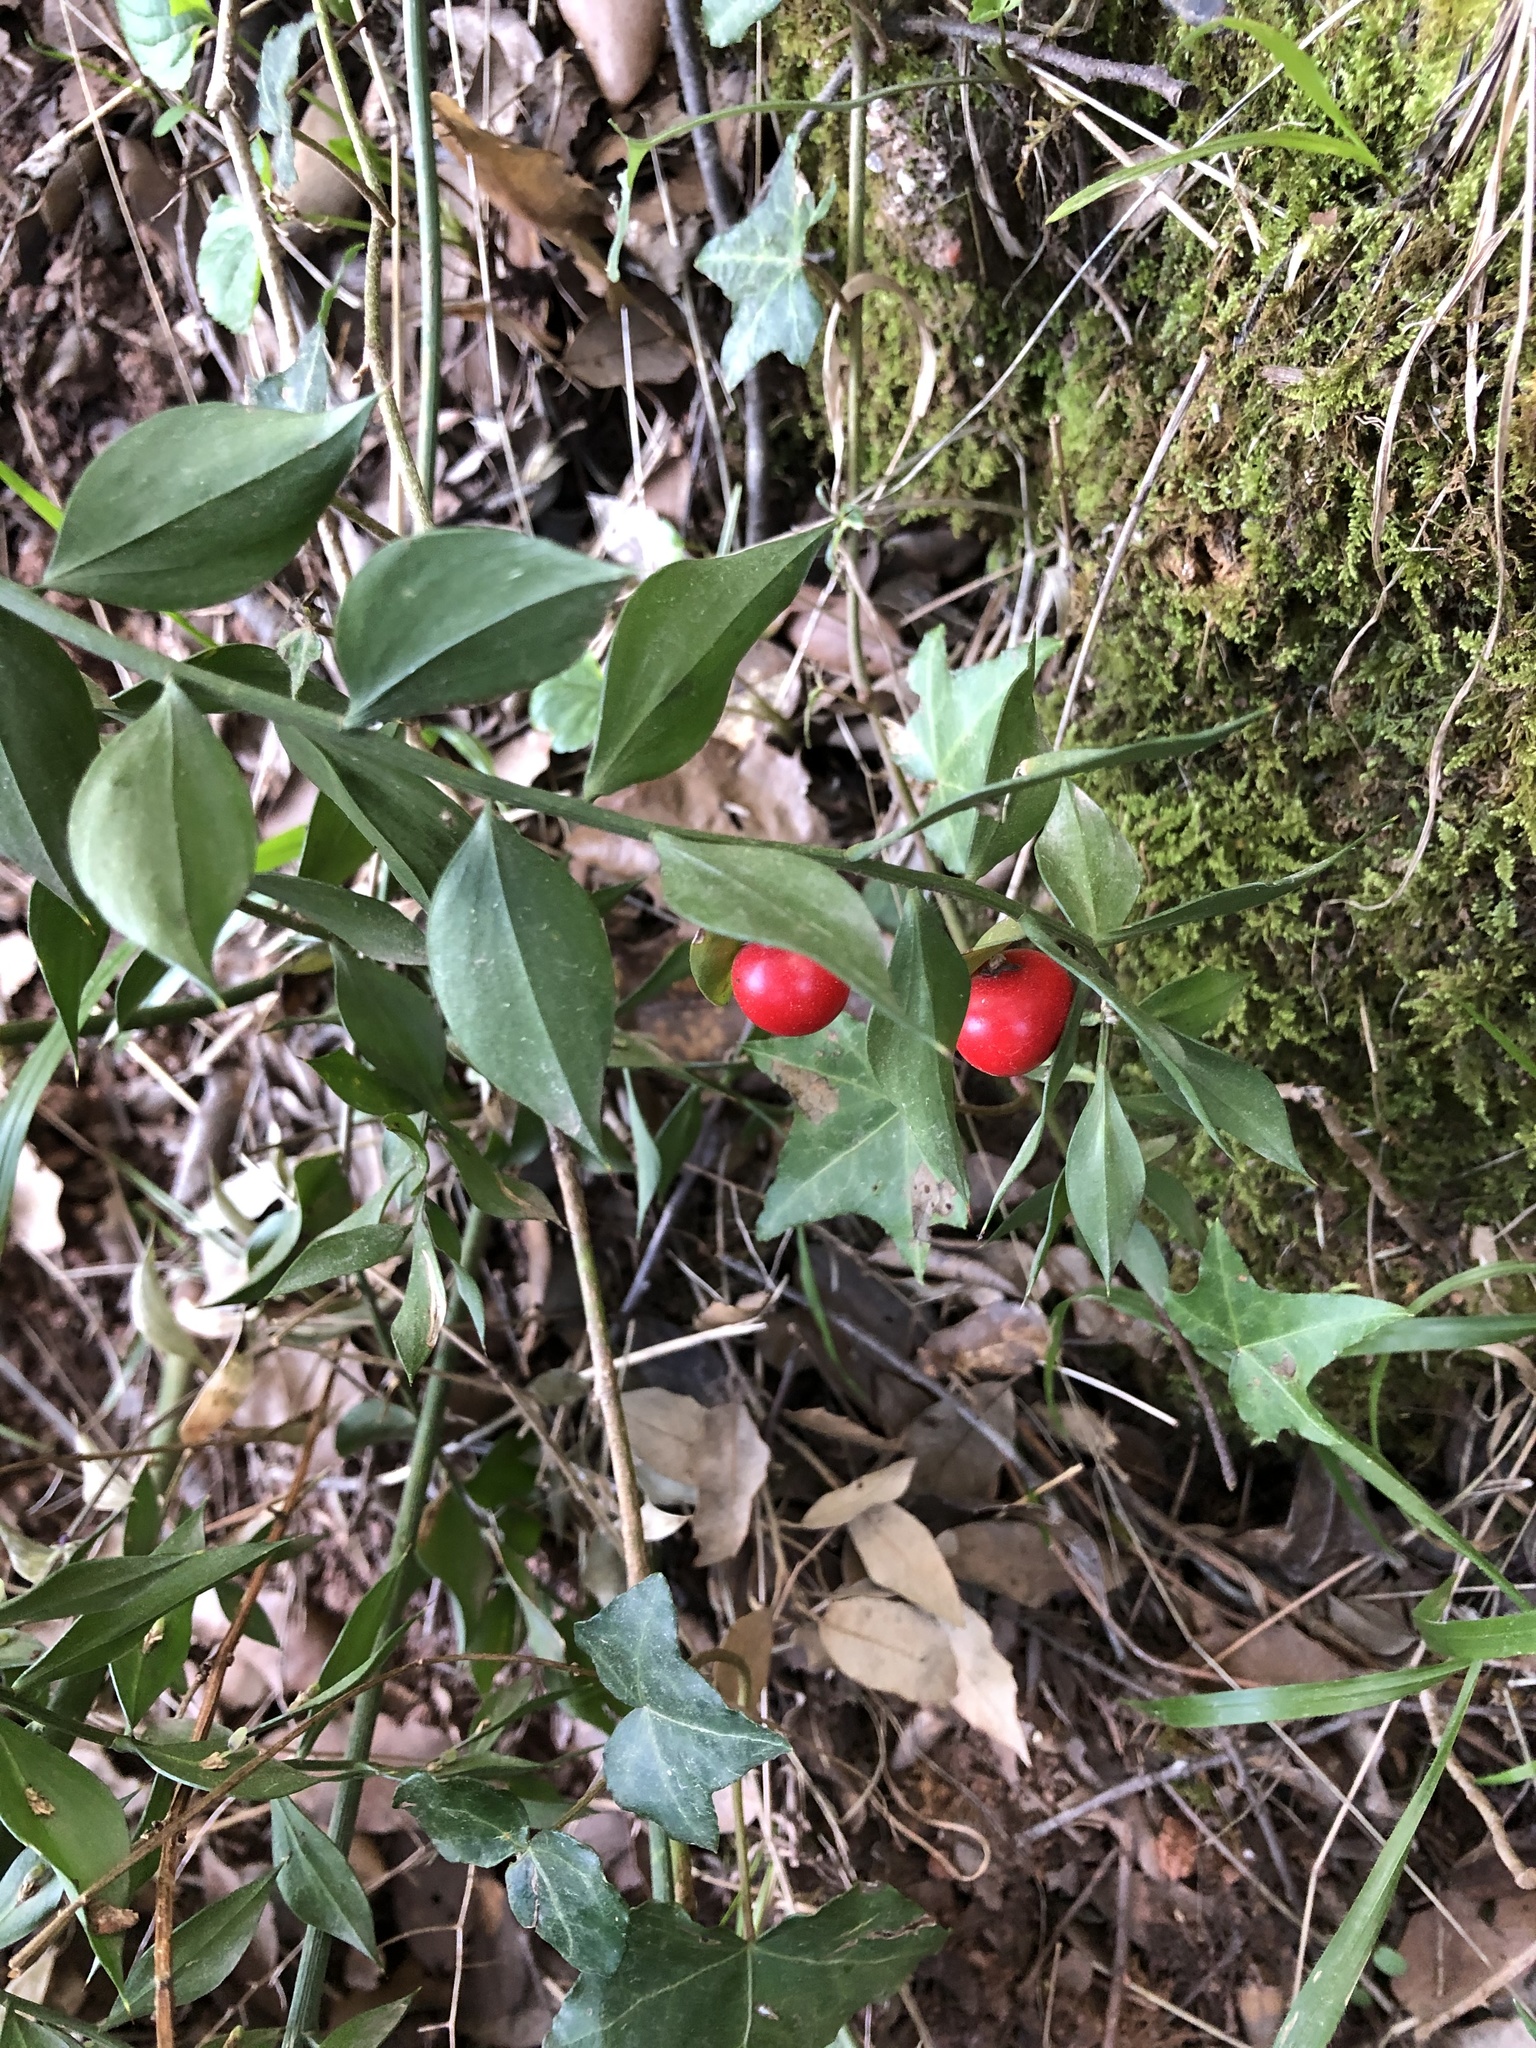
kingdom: Plantae
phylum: Tracheophyta
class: Liliopsida
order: Asparagales
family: Asparagaceae
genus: Ruscus
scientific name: Ruscus aculeatus
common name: Butcher's-broom
